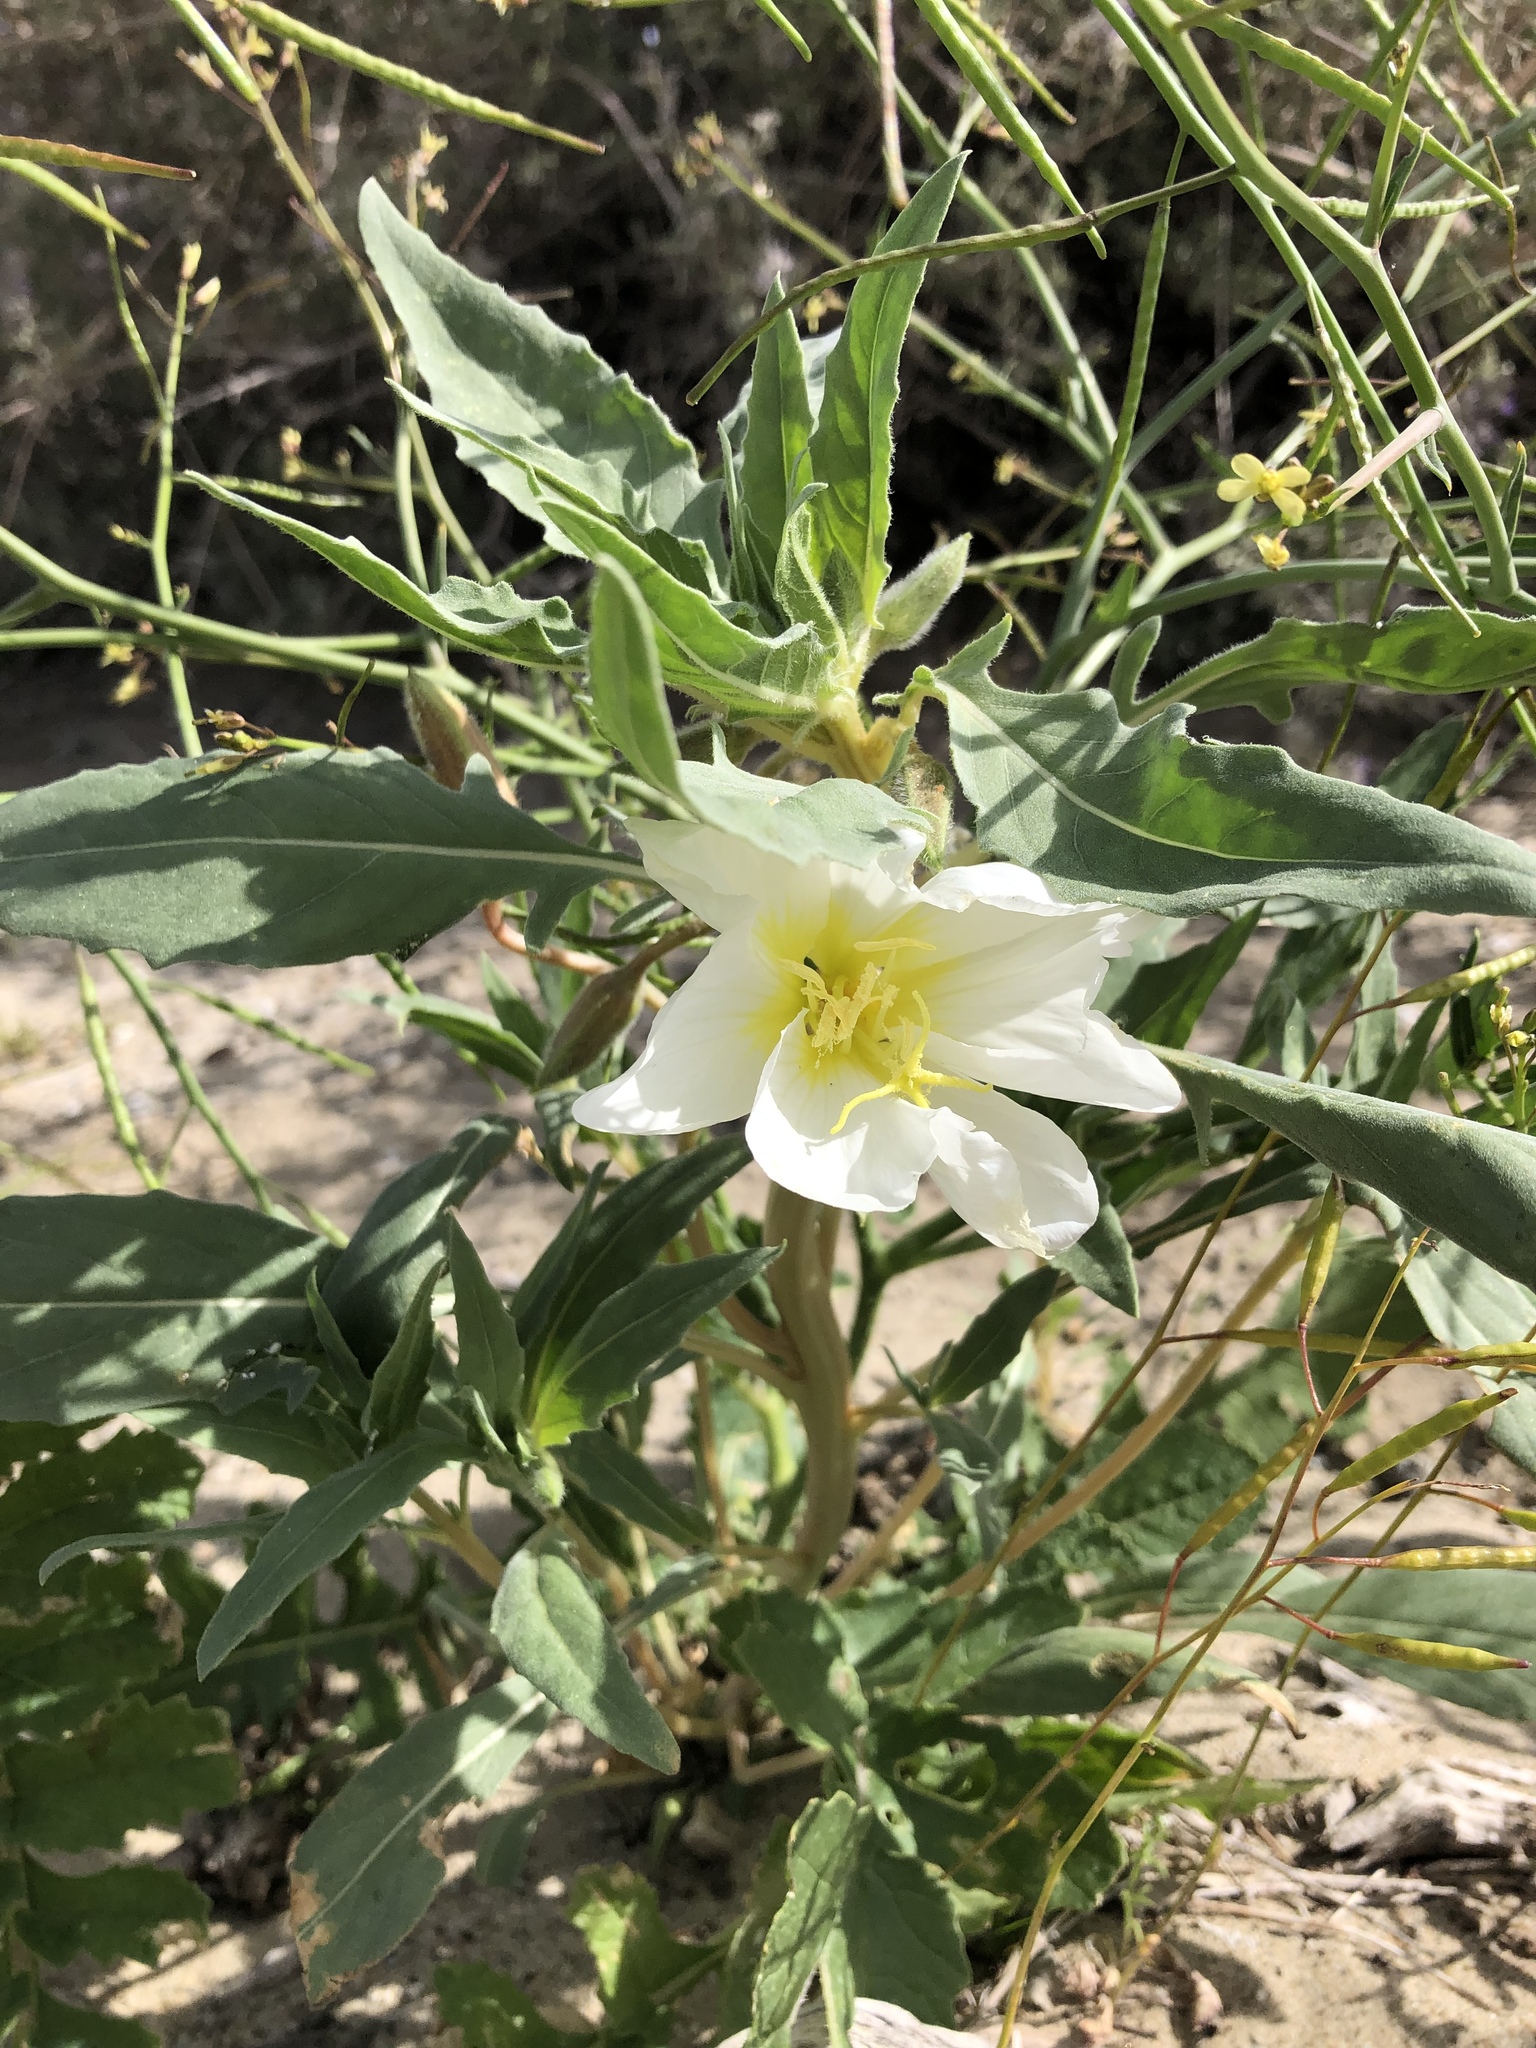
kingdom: Plantae
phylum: Tracheophyta
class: Magnoliopsida
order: Myrtales
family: Onagraceae
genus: Oenothera
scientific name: Oenothera deltoides
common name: Basket evening-primrose
